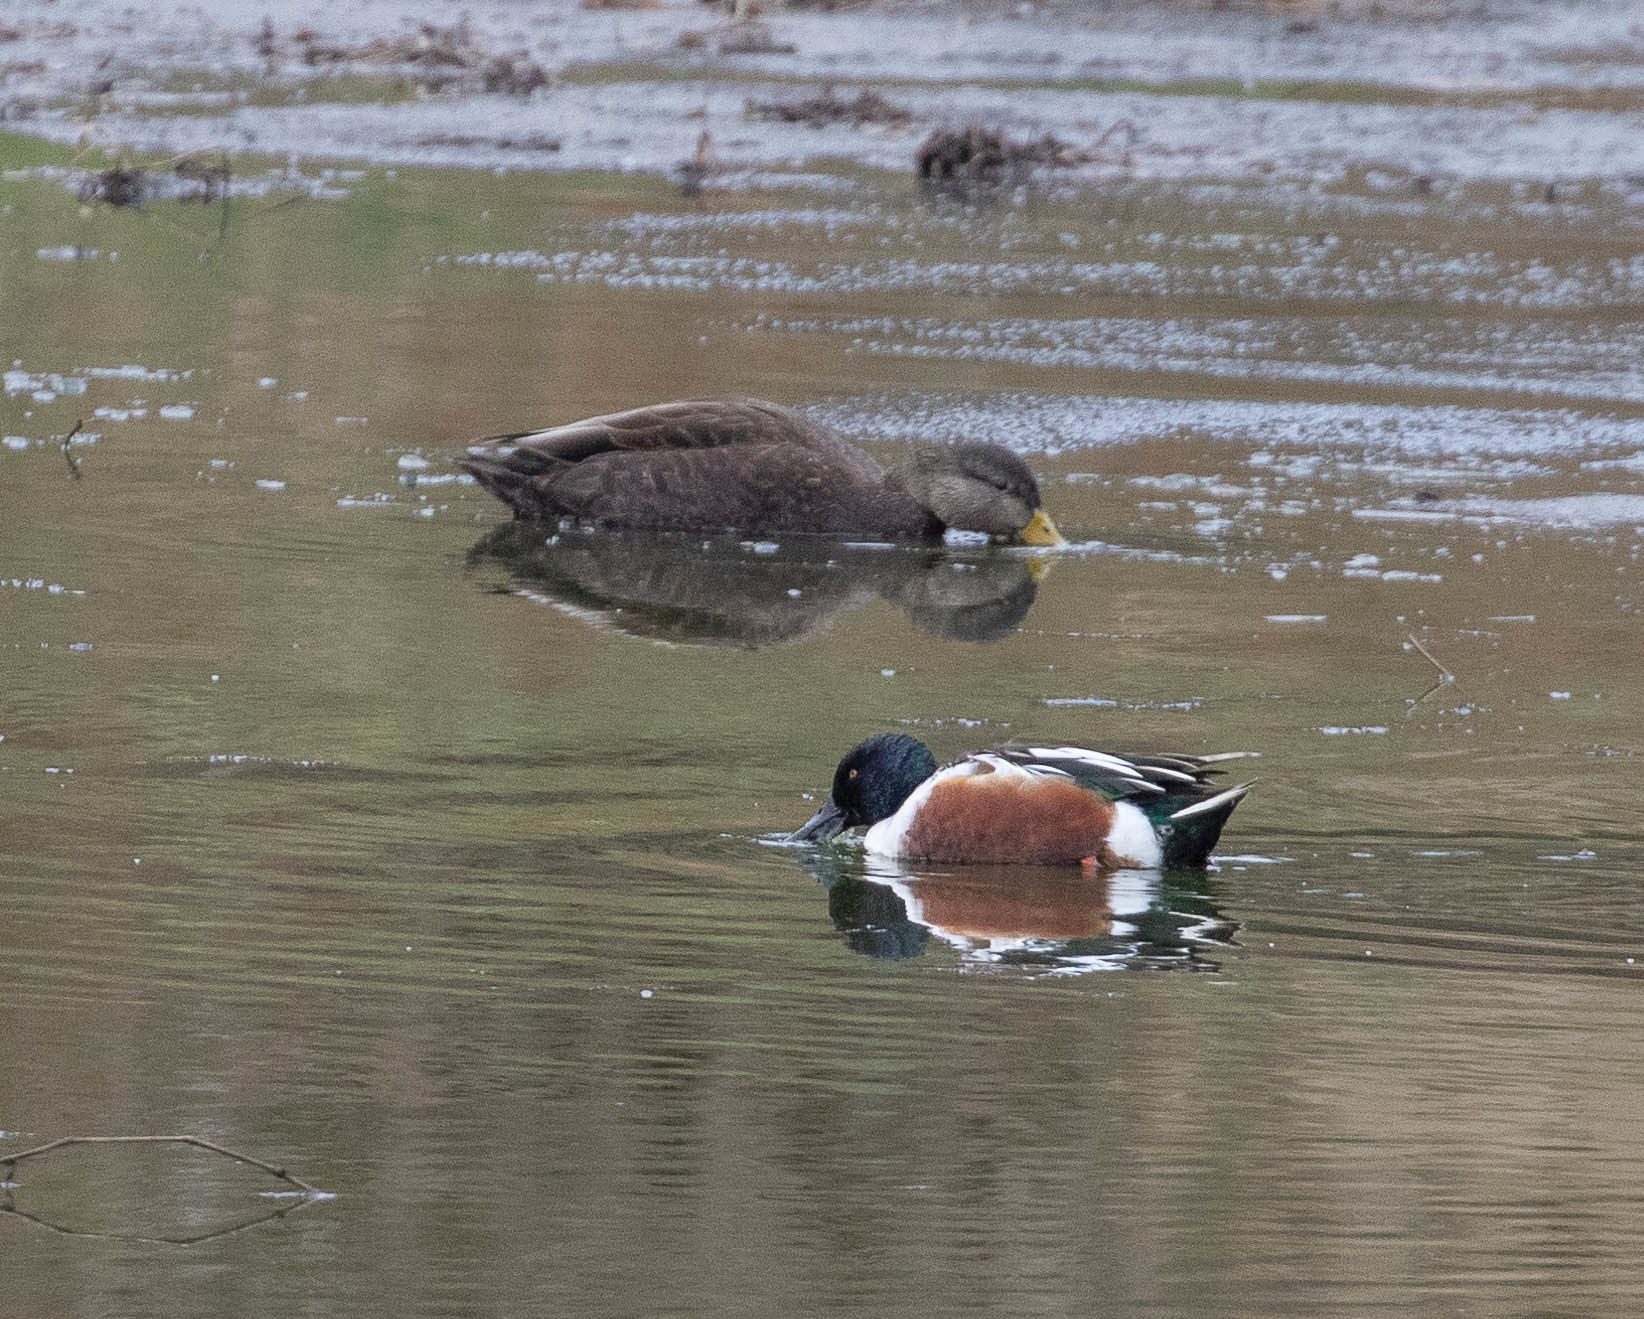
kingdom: Animalia
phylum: Chordata
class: Aves
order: Anseriformes
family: Anatidae
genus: Spatula
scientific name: Spatula clypeata
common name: Northern shoveler
